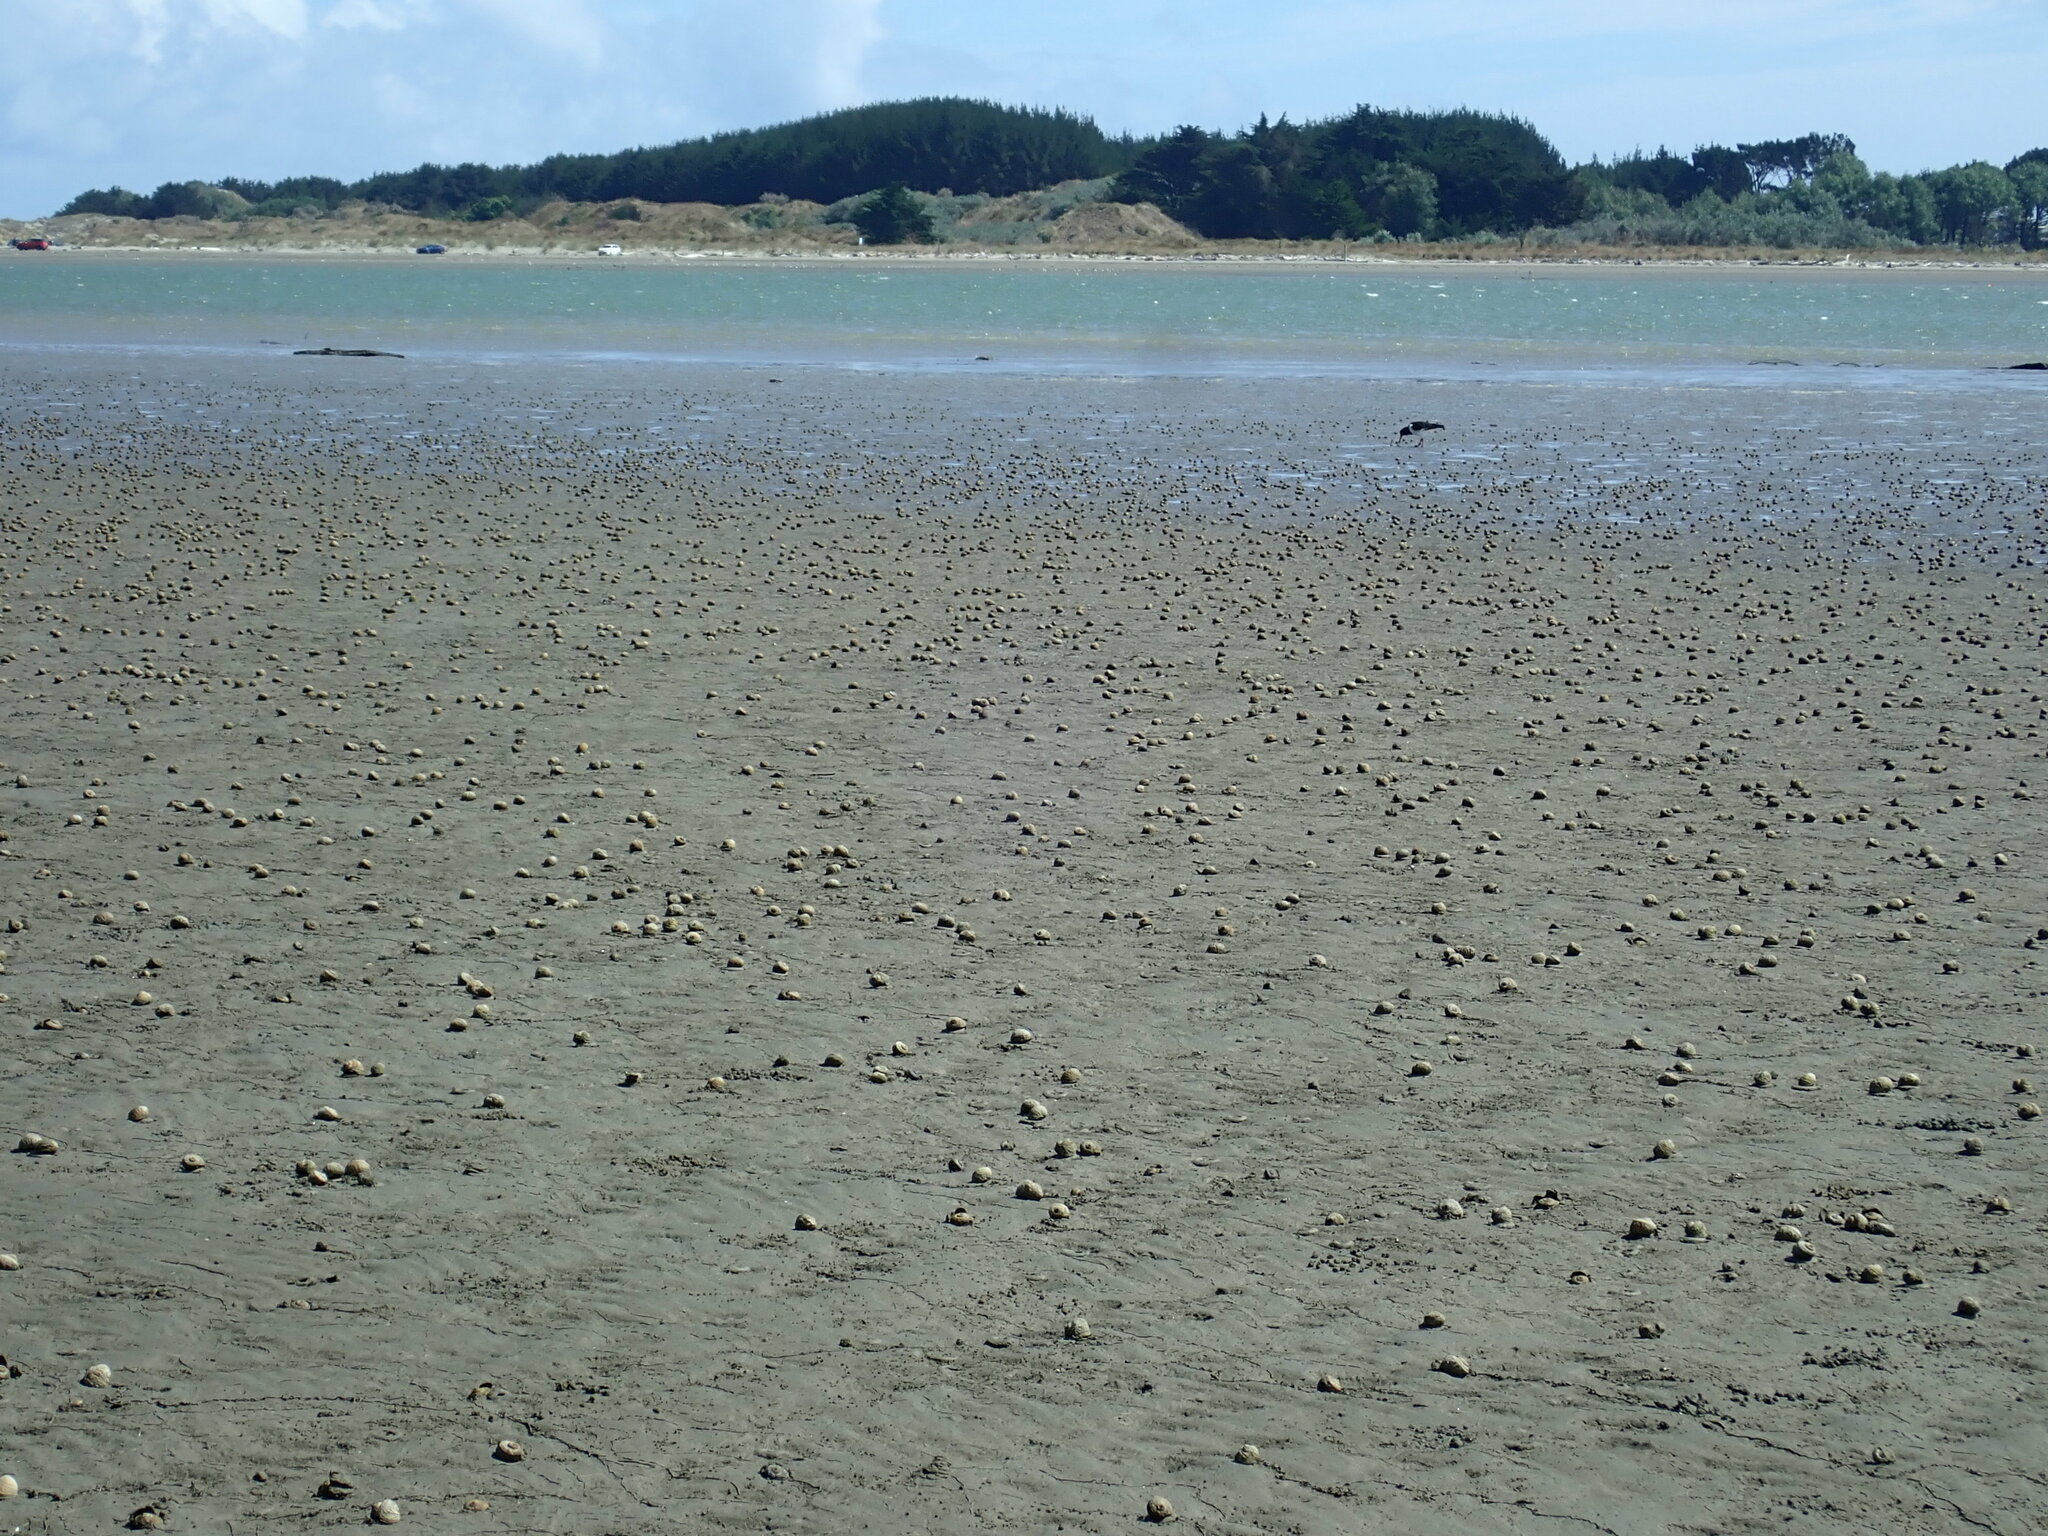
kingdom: Animalia
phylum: Chordata
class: Aves
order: Charadriiformes
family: Haematopodidae
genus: Haematopus
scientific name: Haematopus finschi
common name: South island oystercatcher
